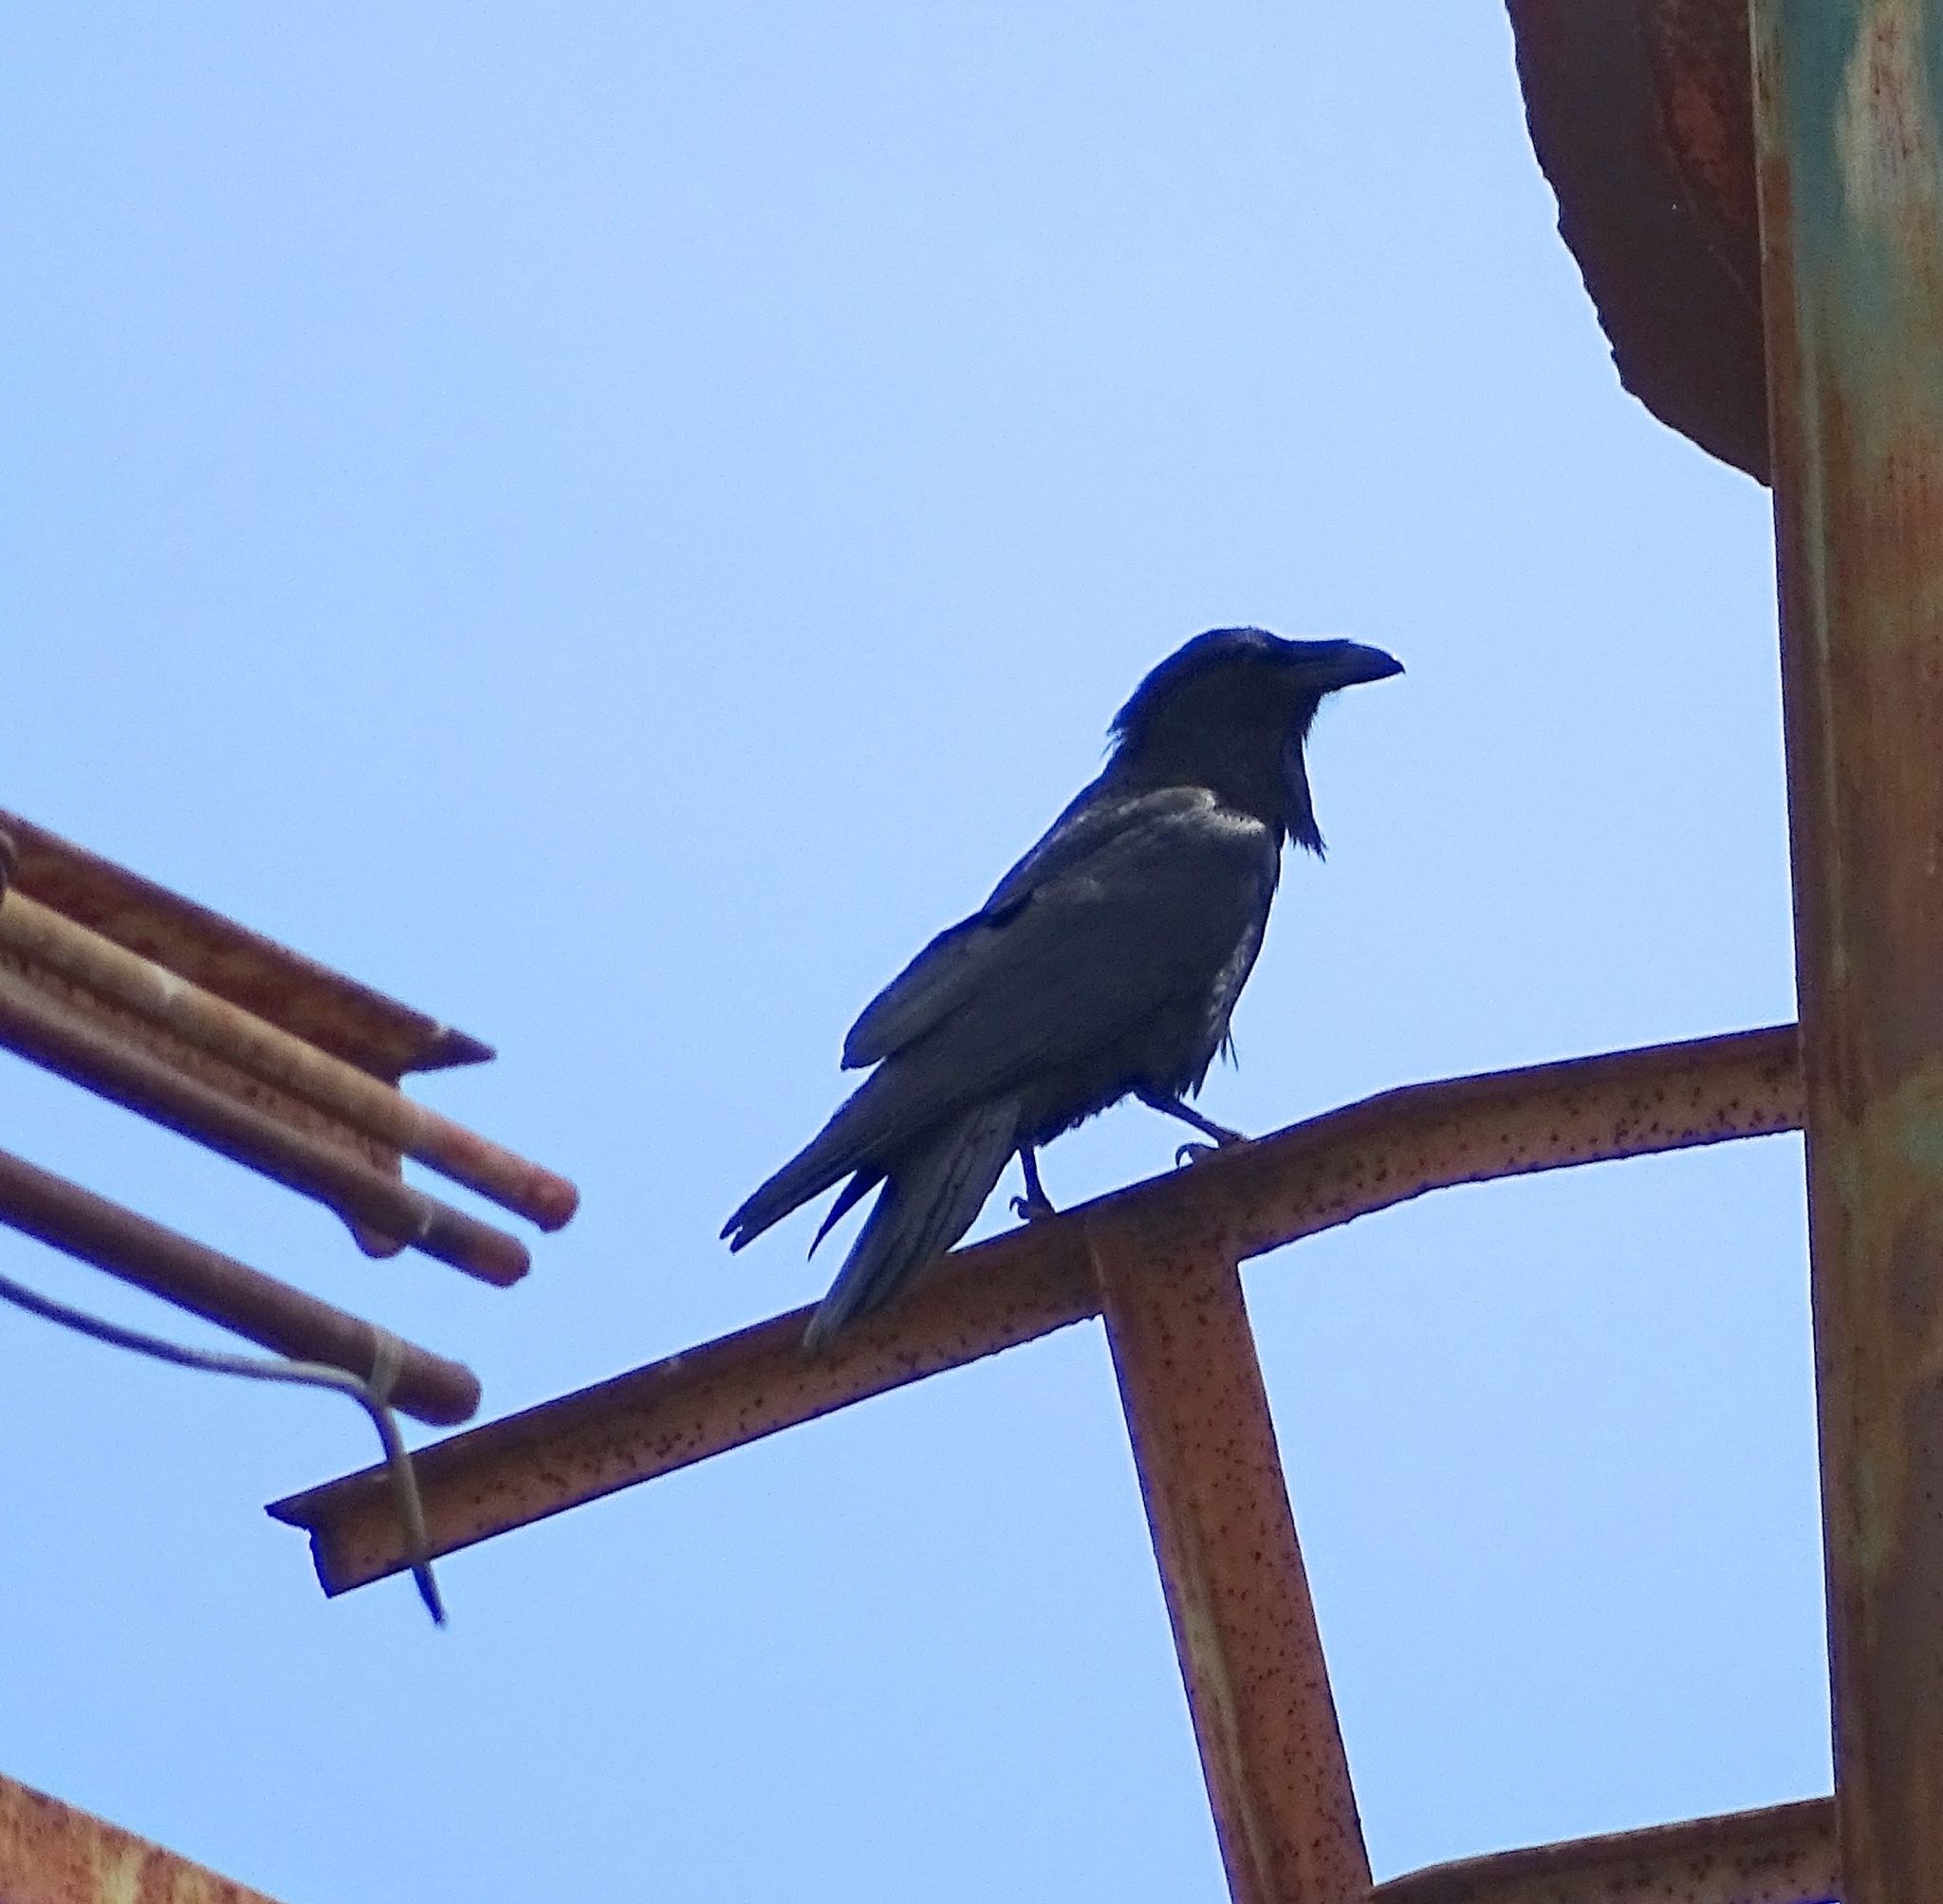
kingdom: Animalia
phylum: Chordata
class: Aves
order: Passeriformes
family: Corvidae
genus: Corvus
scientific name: Corvus corax
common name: Common raven
